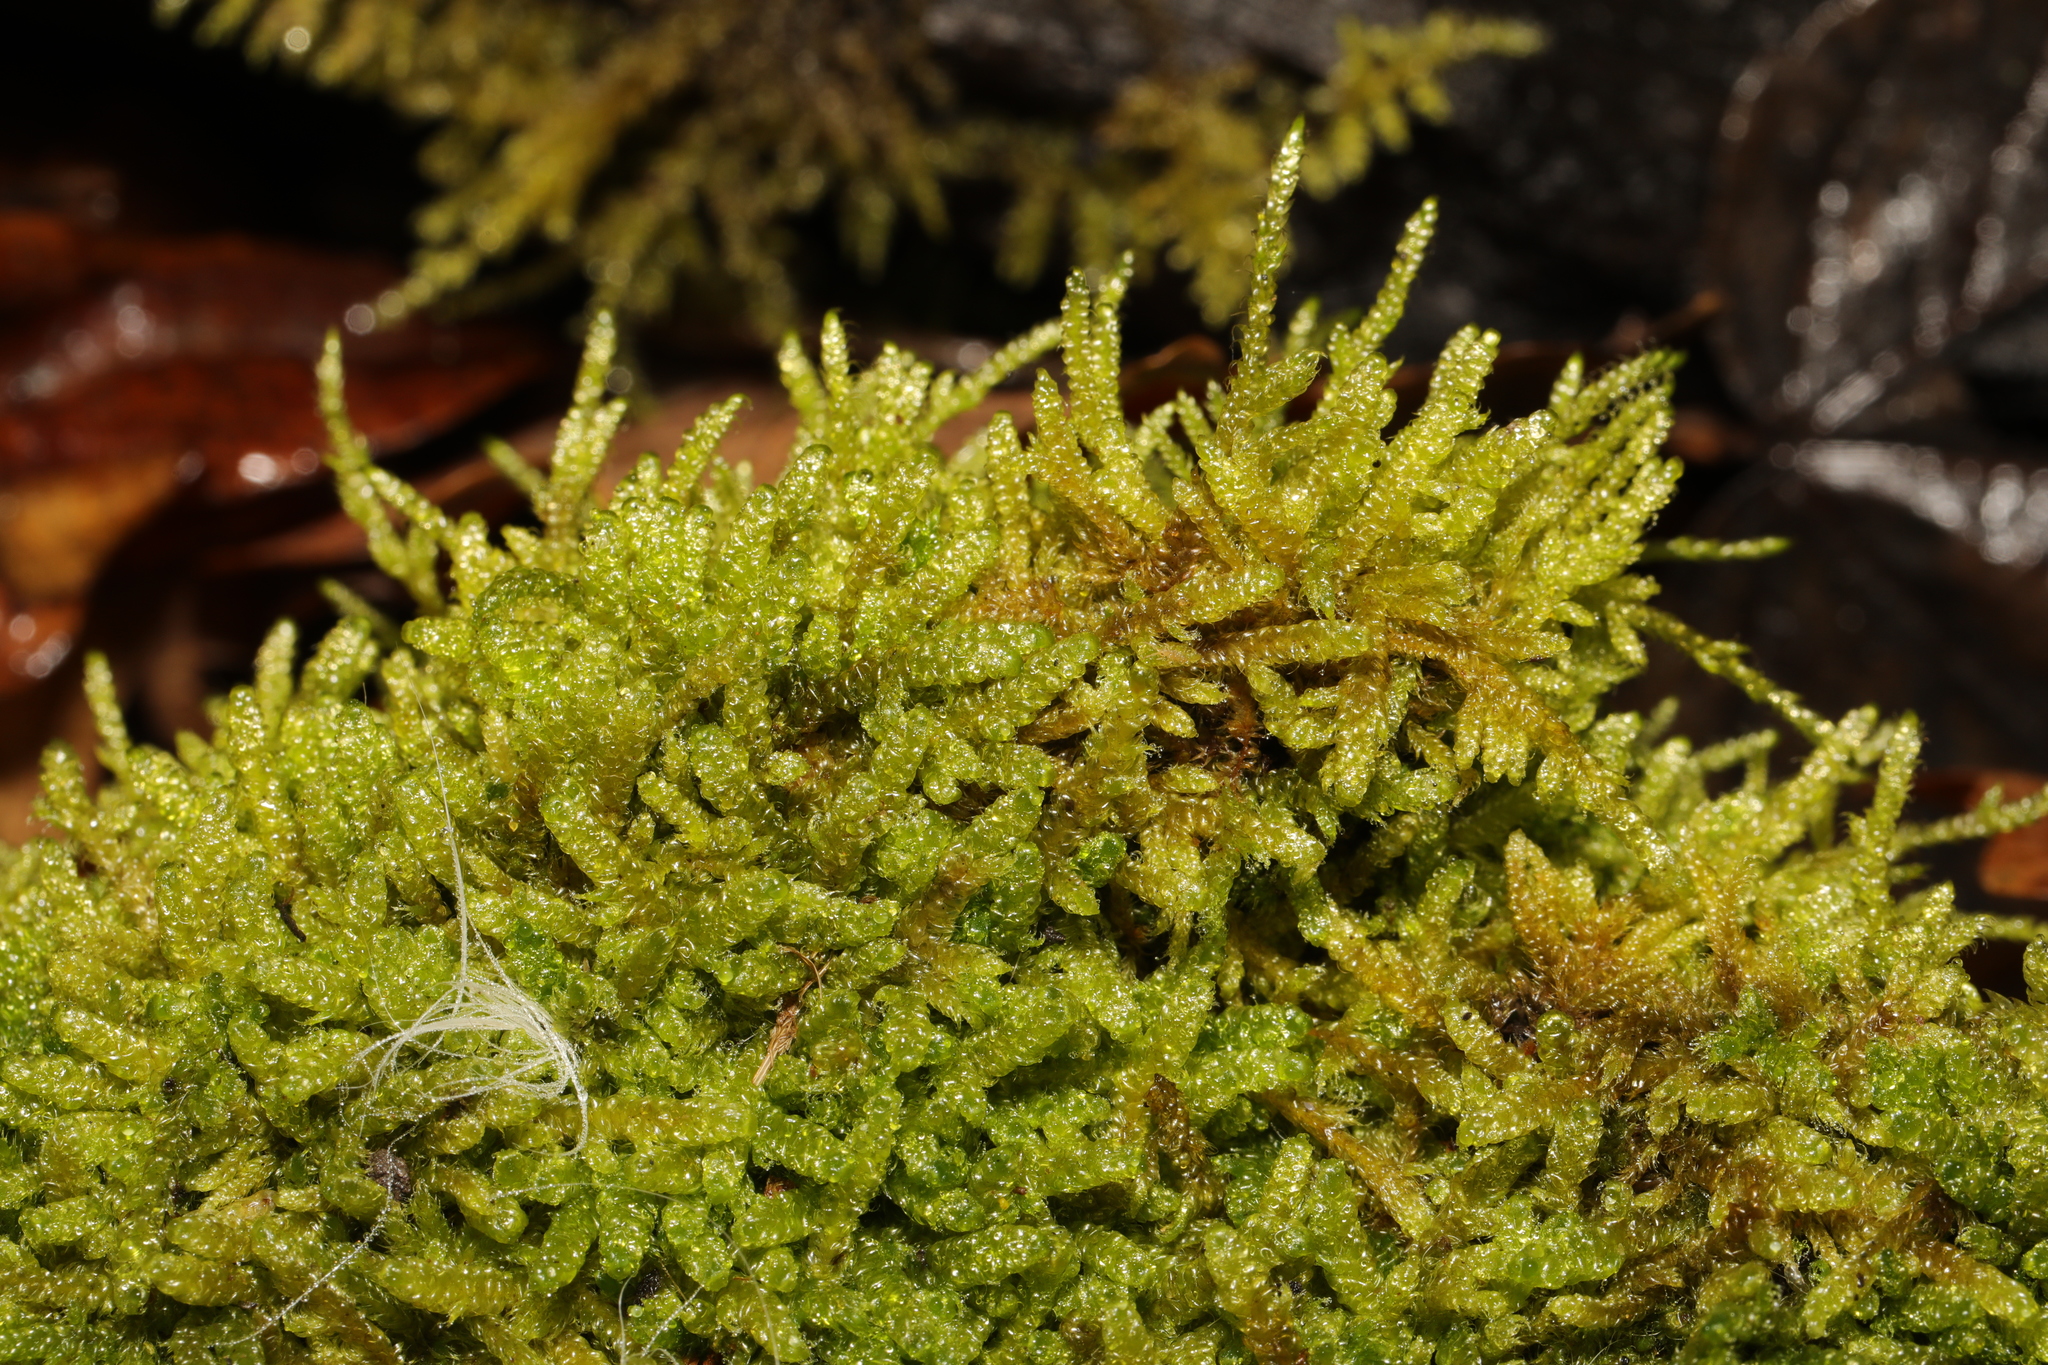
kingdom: Plantae
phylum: Bryophyta
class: Bryopsida
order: Hypnales
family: Hypnaceae
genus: Hypnum
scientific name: Hypnum cupressiforme
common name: Cypress-leaved plait-moss
